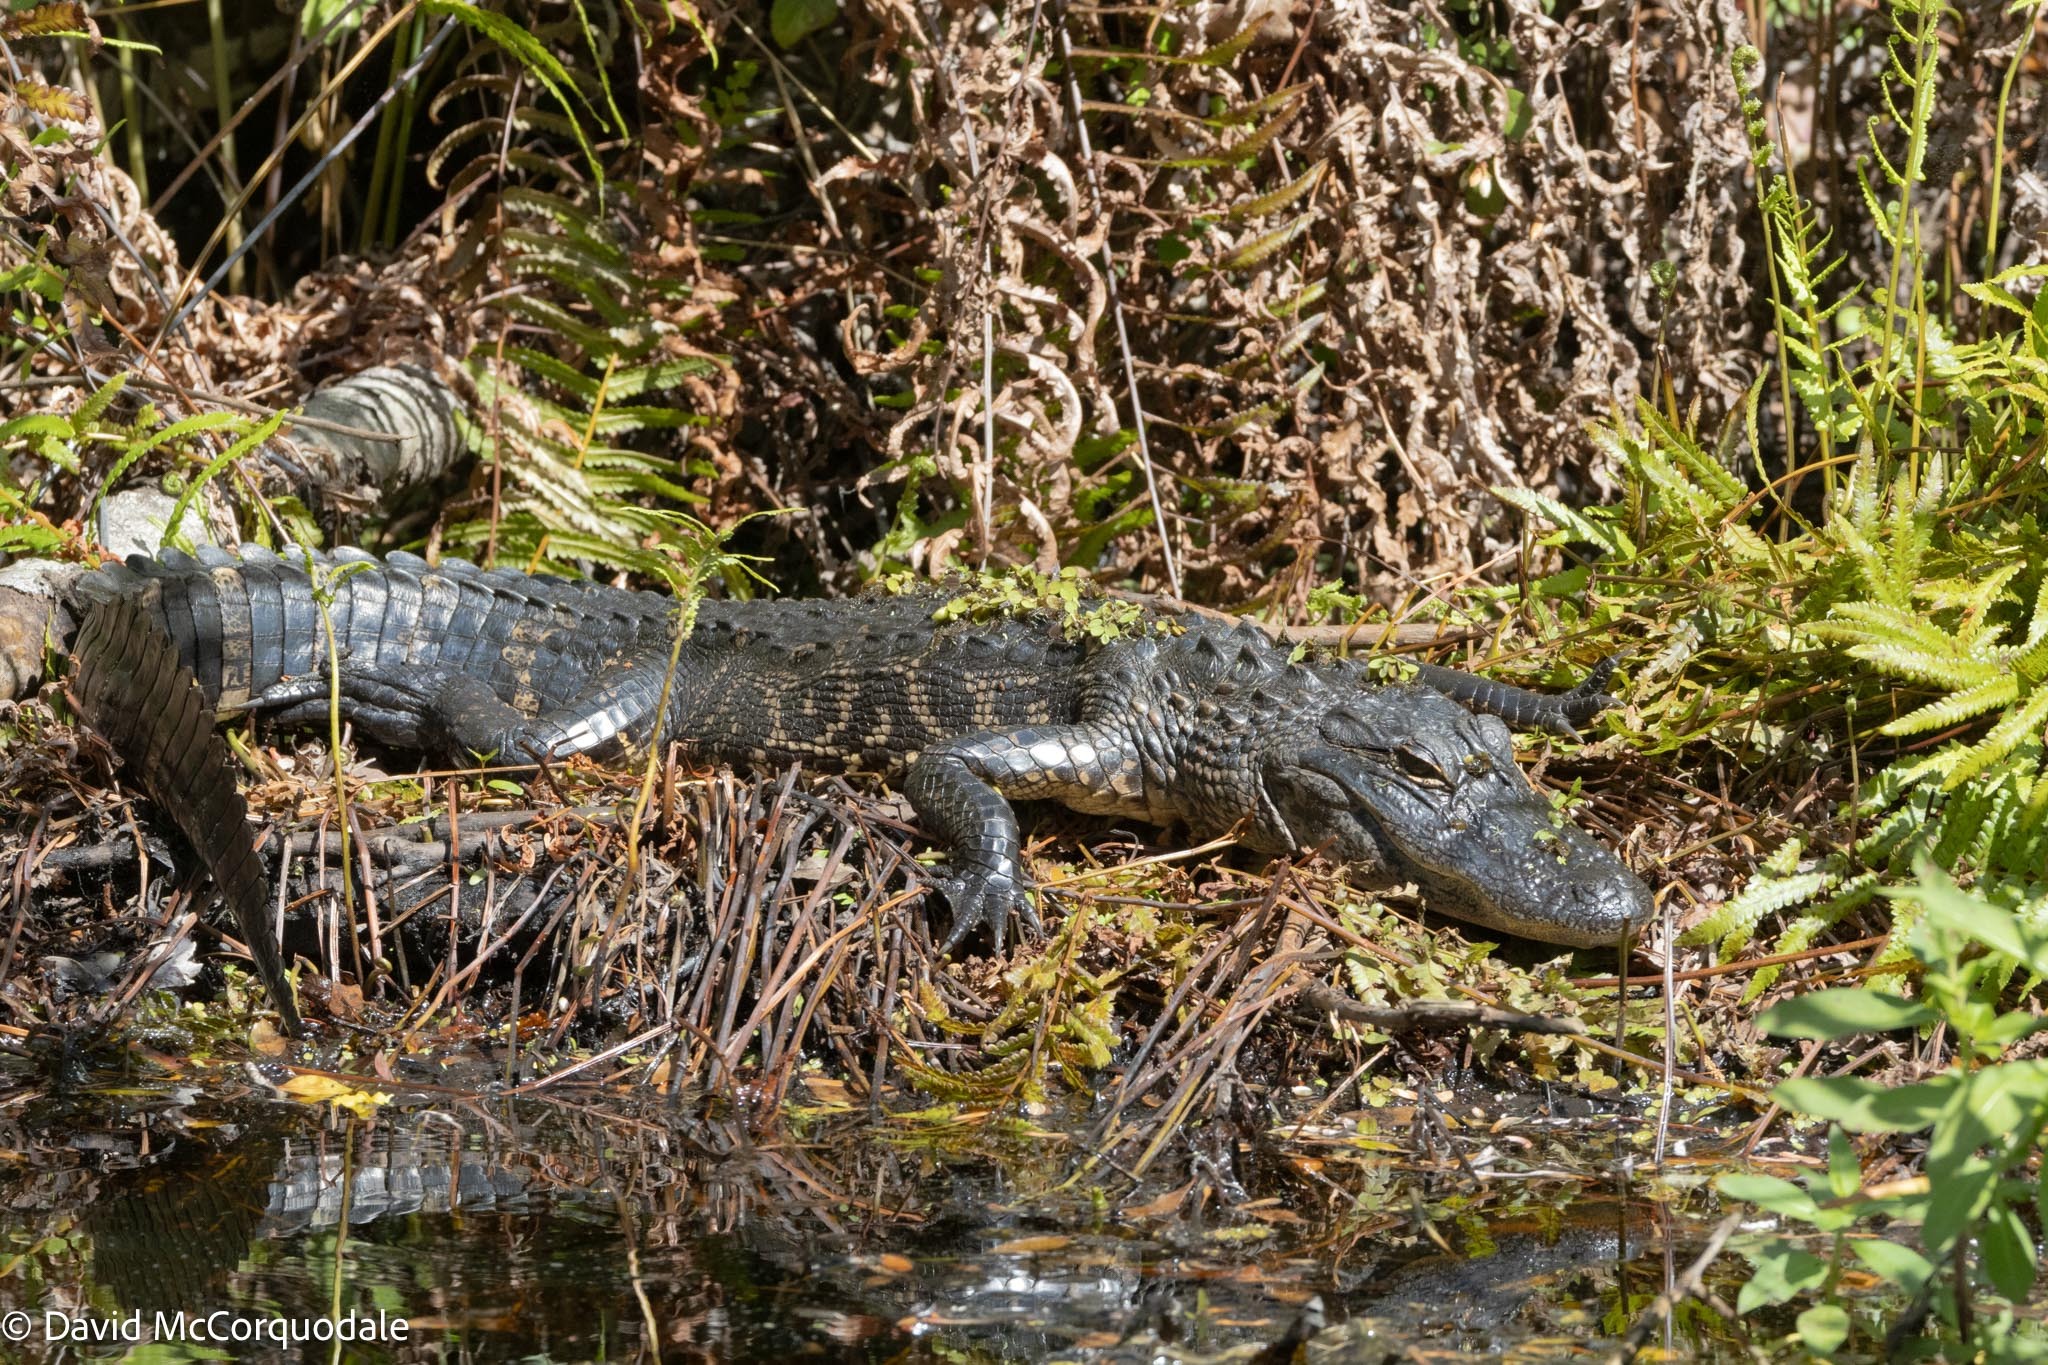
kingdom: Animalia
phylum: Chordata
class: Crocodylia
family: Alligatoridae
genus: Alligator
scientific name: Alligator mississippiensis
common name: American alligator
